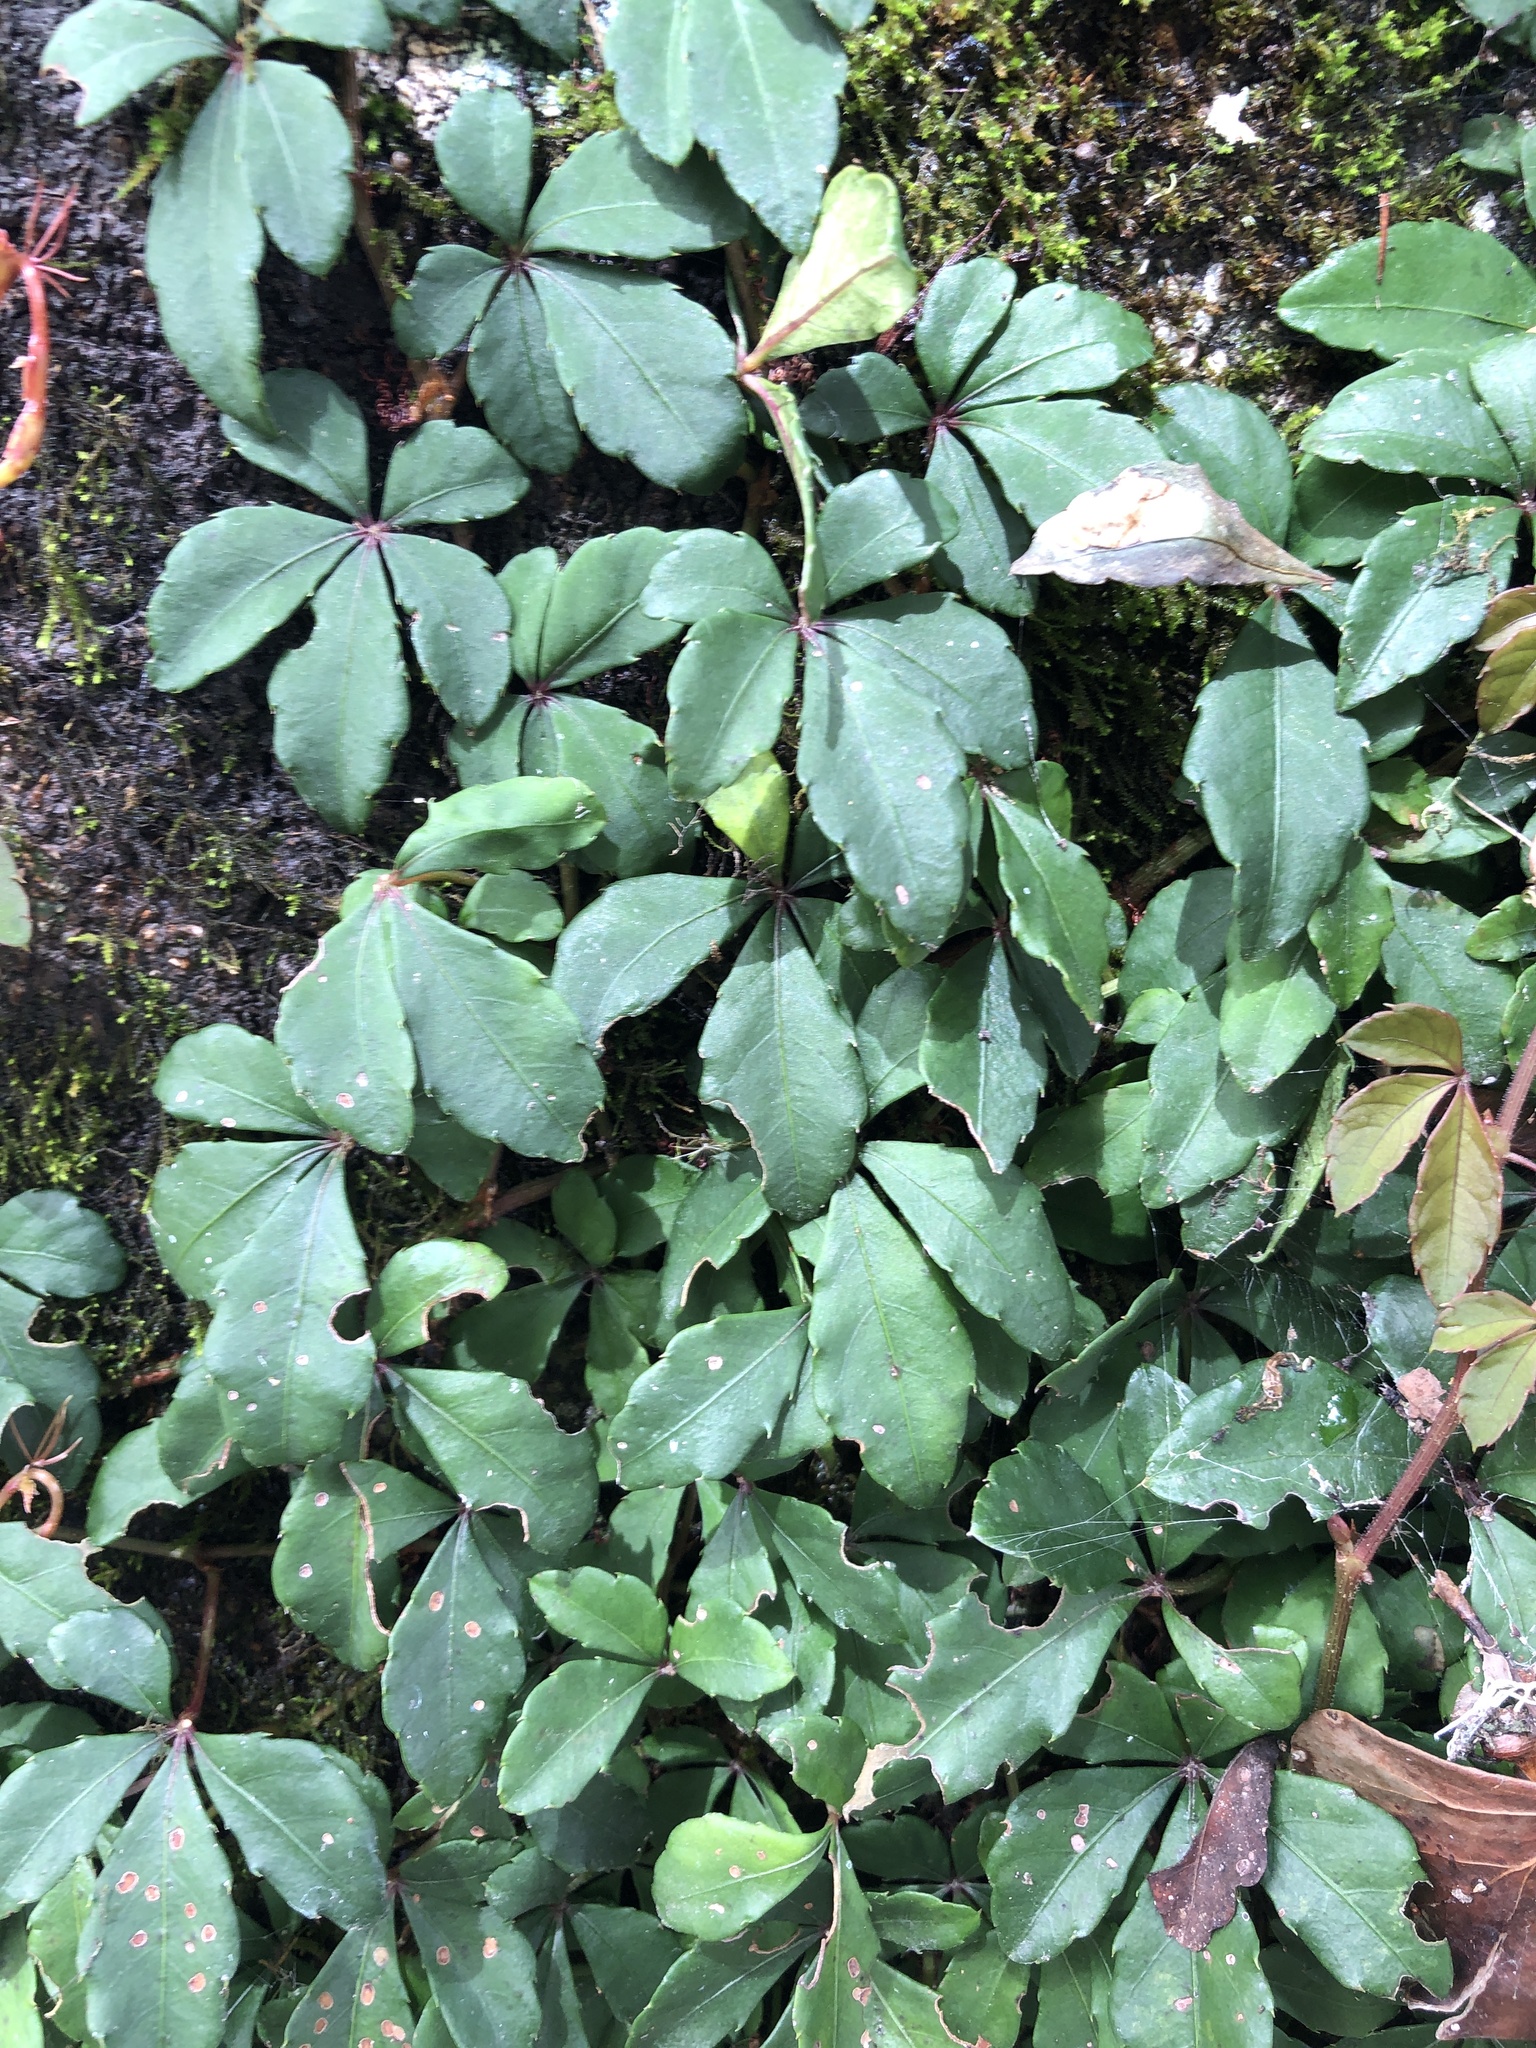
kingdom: Plantae
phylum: Tracheophyta
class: Magnoliopsida
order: Vitales
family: Vitaceae
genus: Tetrastigma
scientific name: Tetrastigma obtectum
